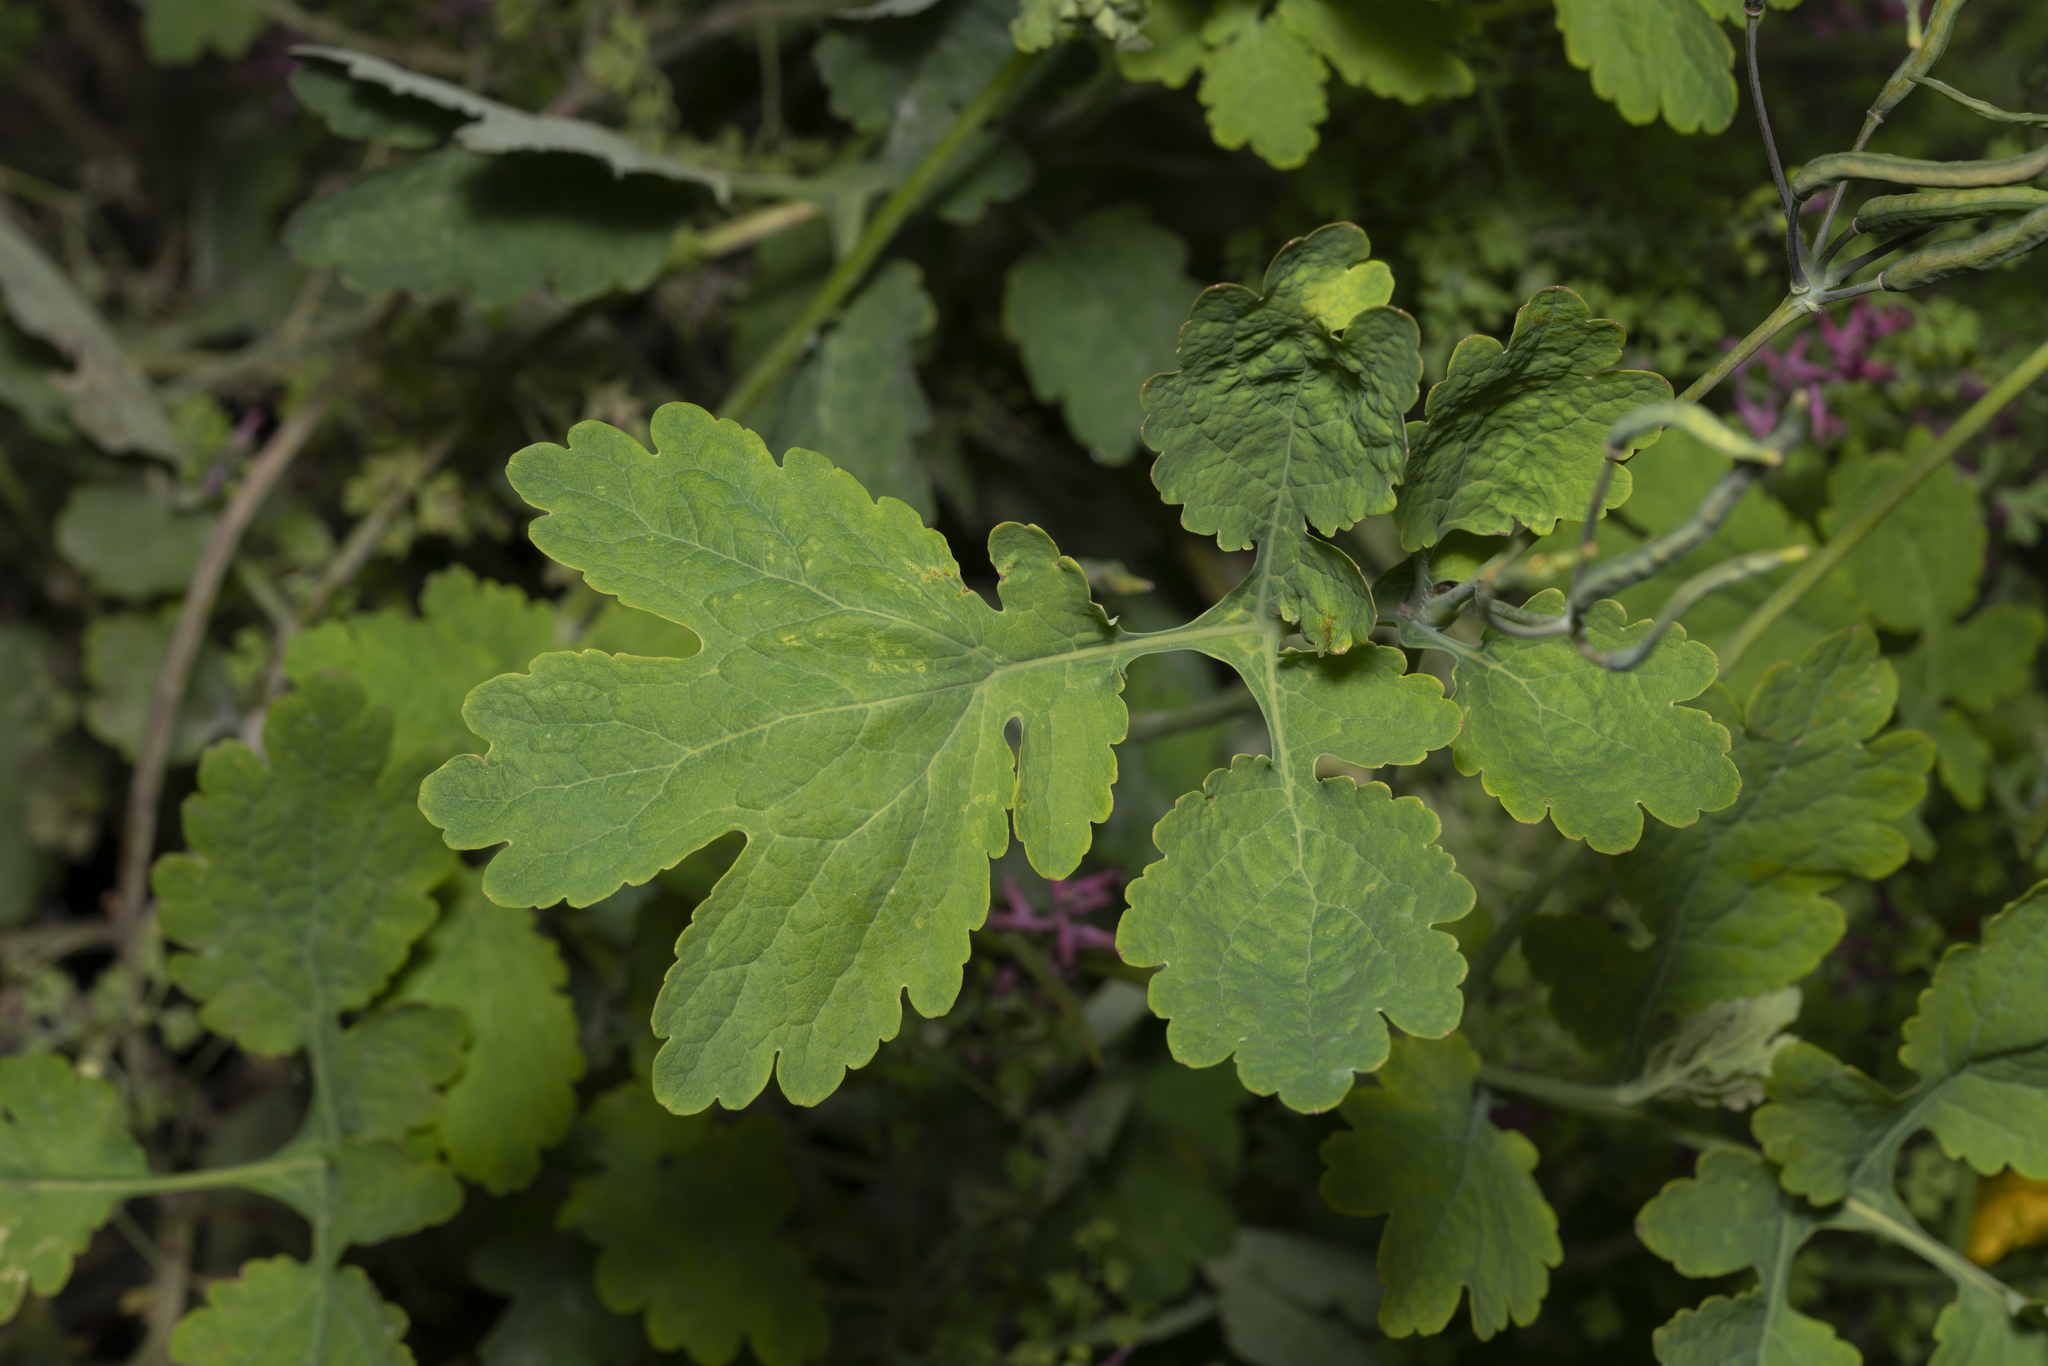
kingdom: Plantae
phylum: Tracheophyta
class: Magnoliopsida
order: Ranunculales
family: Papaveraceae
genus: Chelidonium
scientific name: Chelidonium majus
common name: Greater celandine
